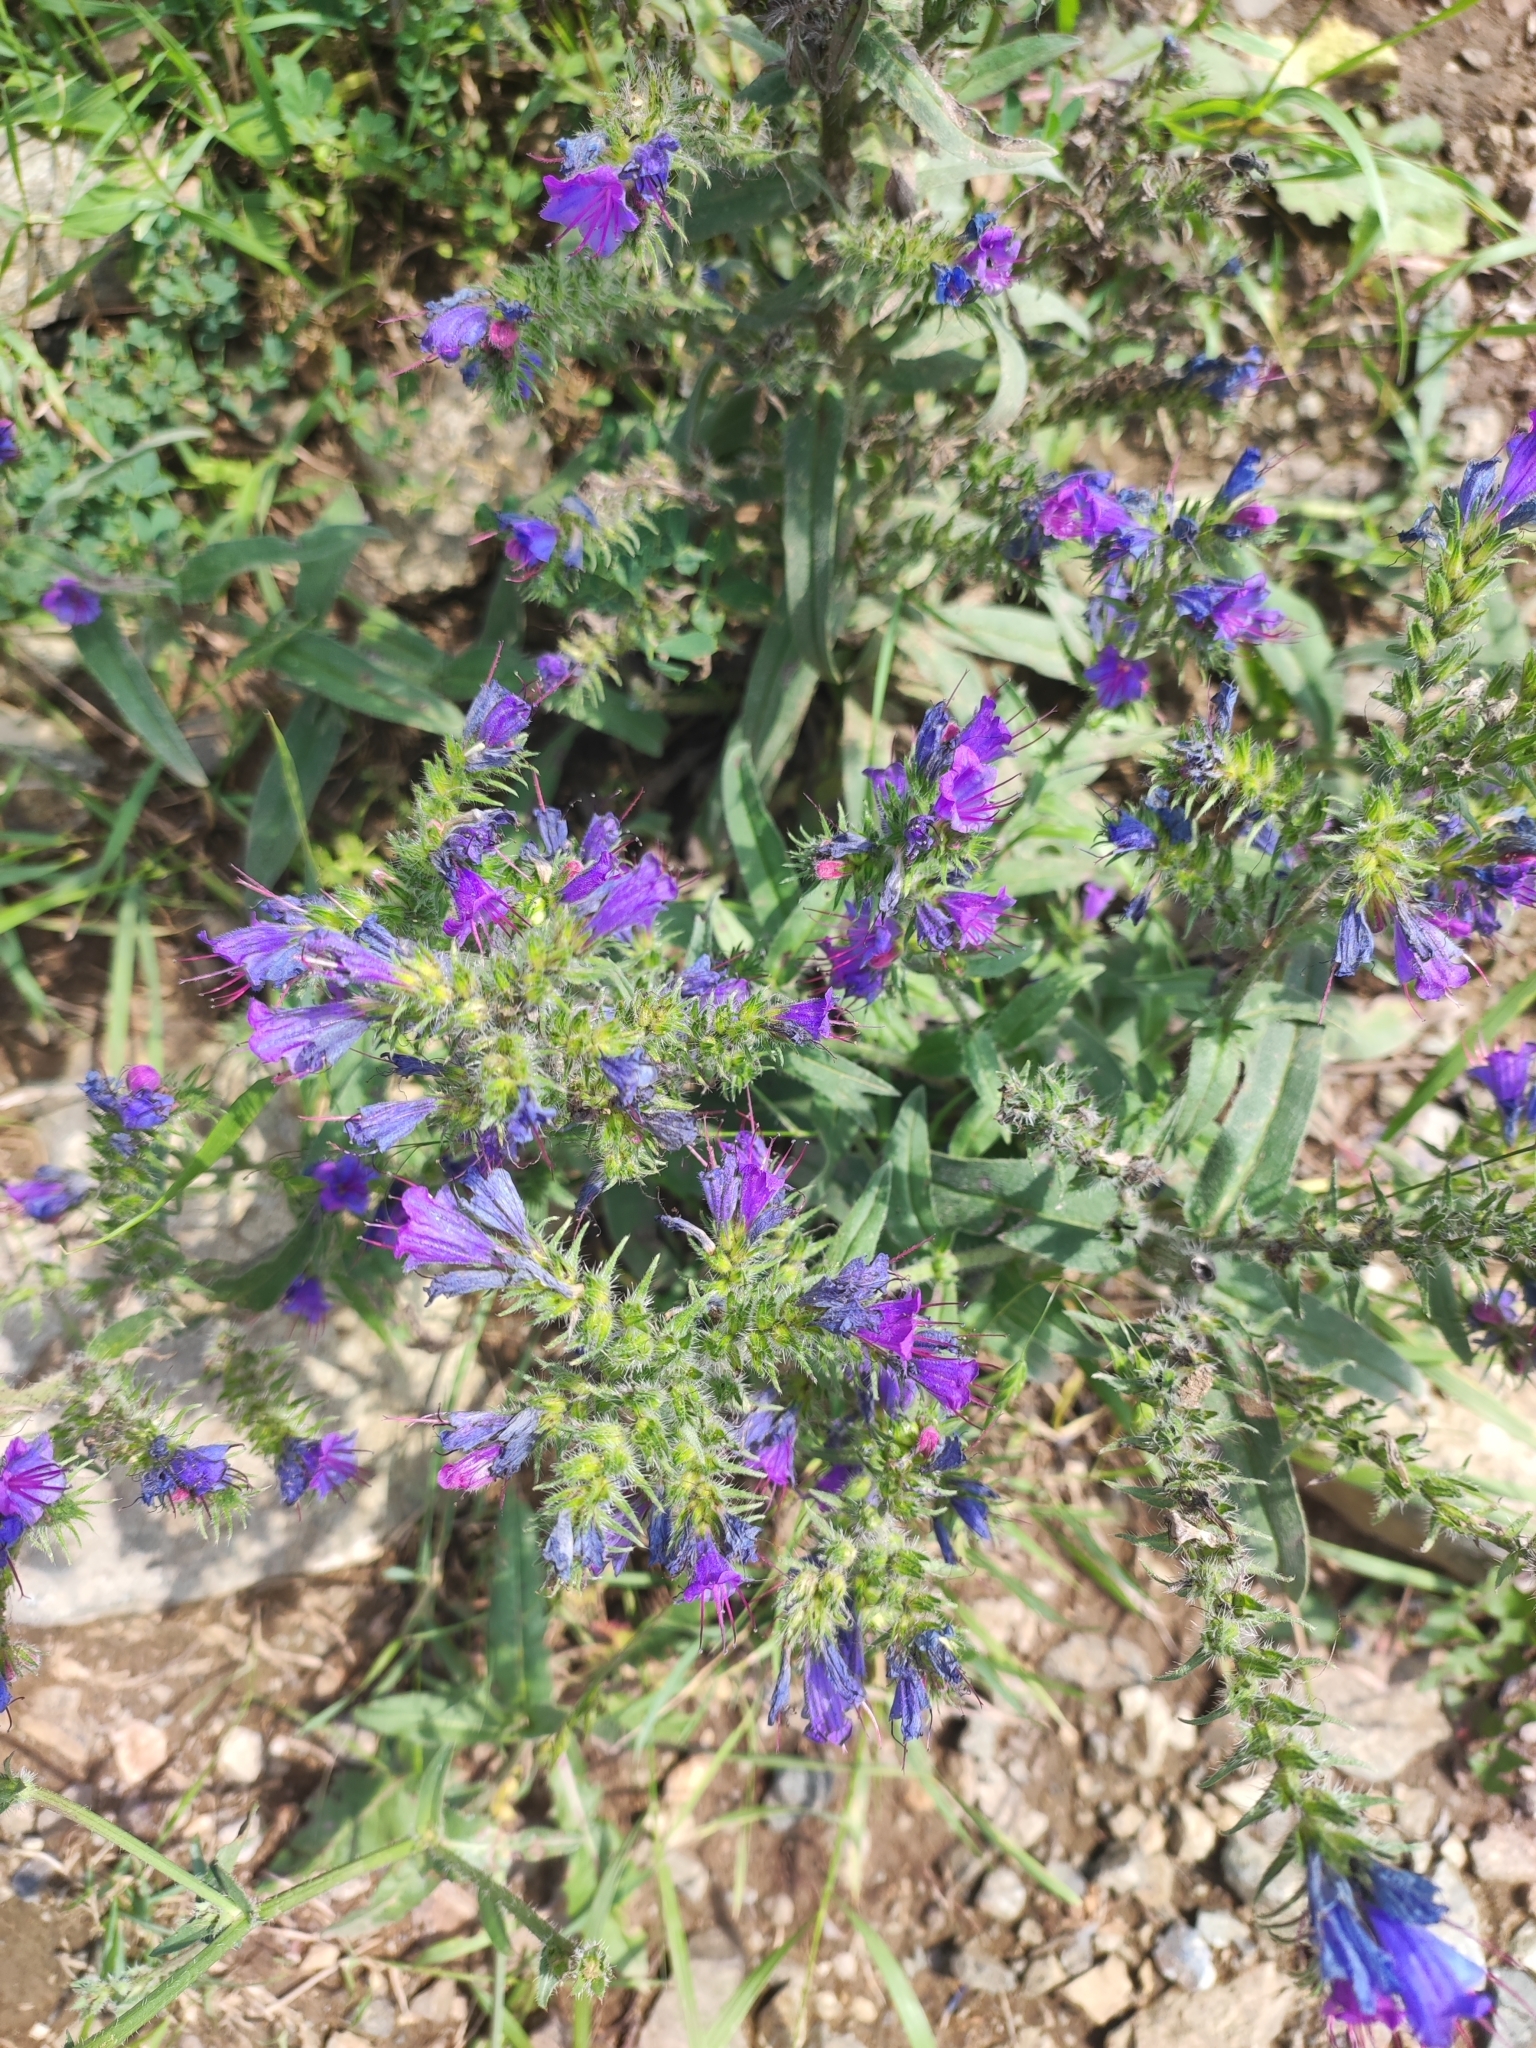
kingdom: Plantae
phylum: Tracheophyta
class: Magnoliopsida
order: Boraginales
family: Boraginaceae
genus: Echium
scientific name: Echium vulgare
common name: Common viper's bugloss
